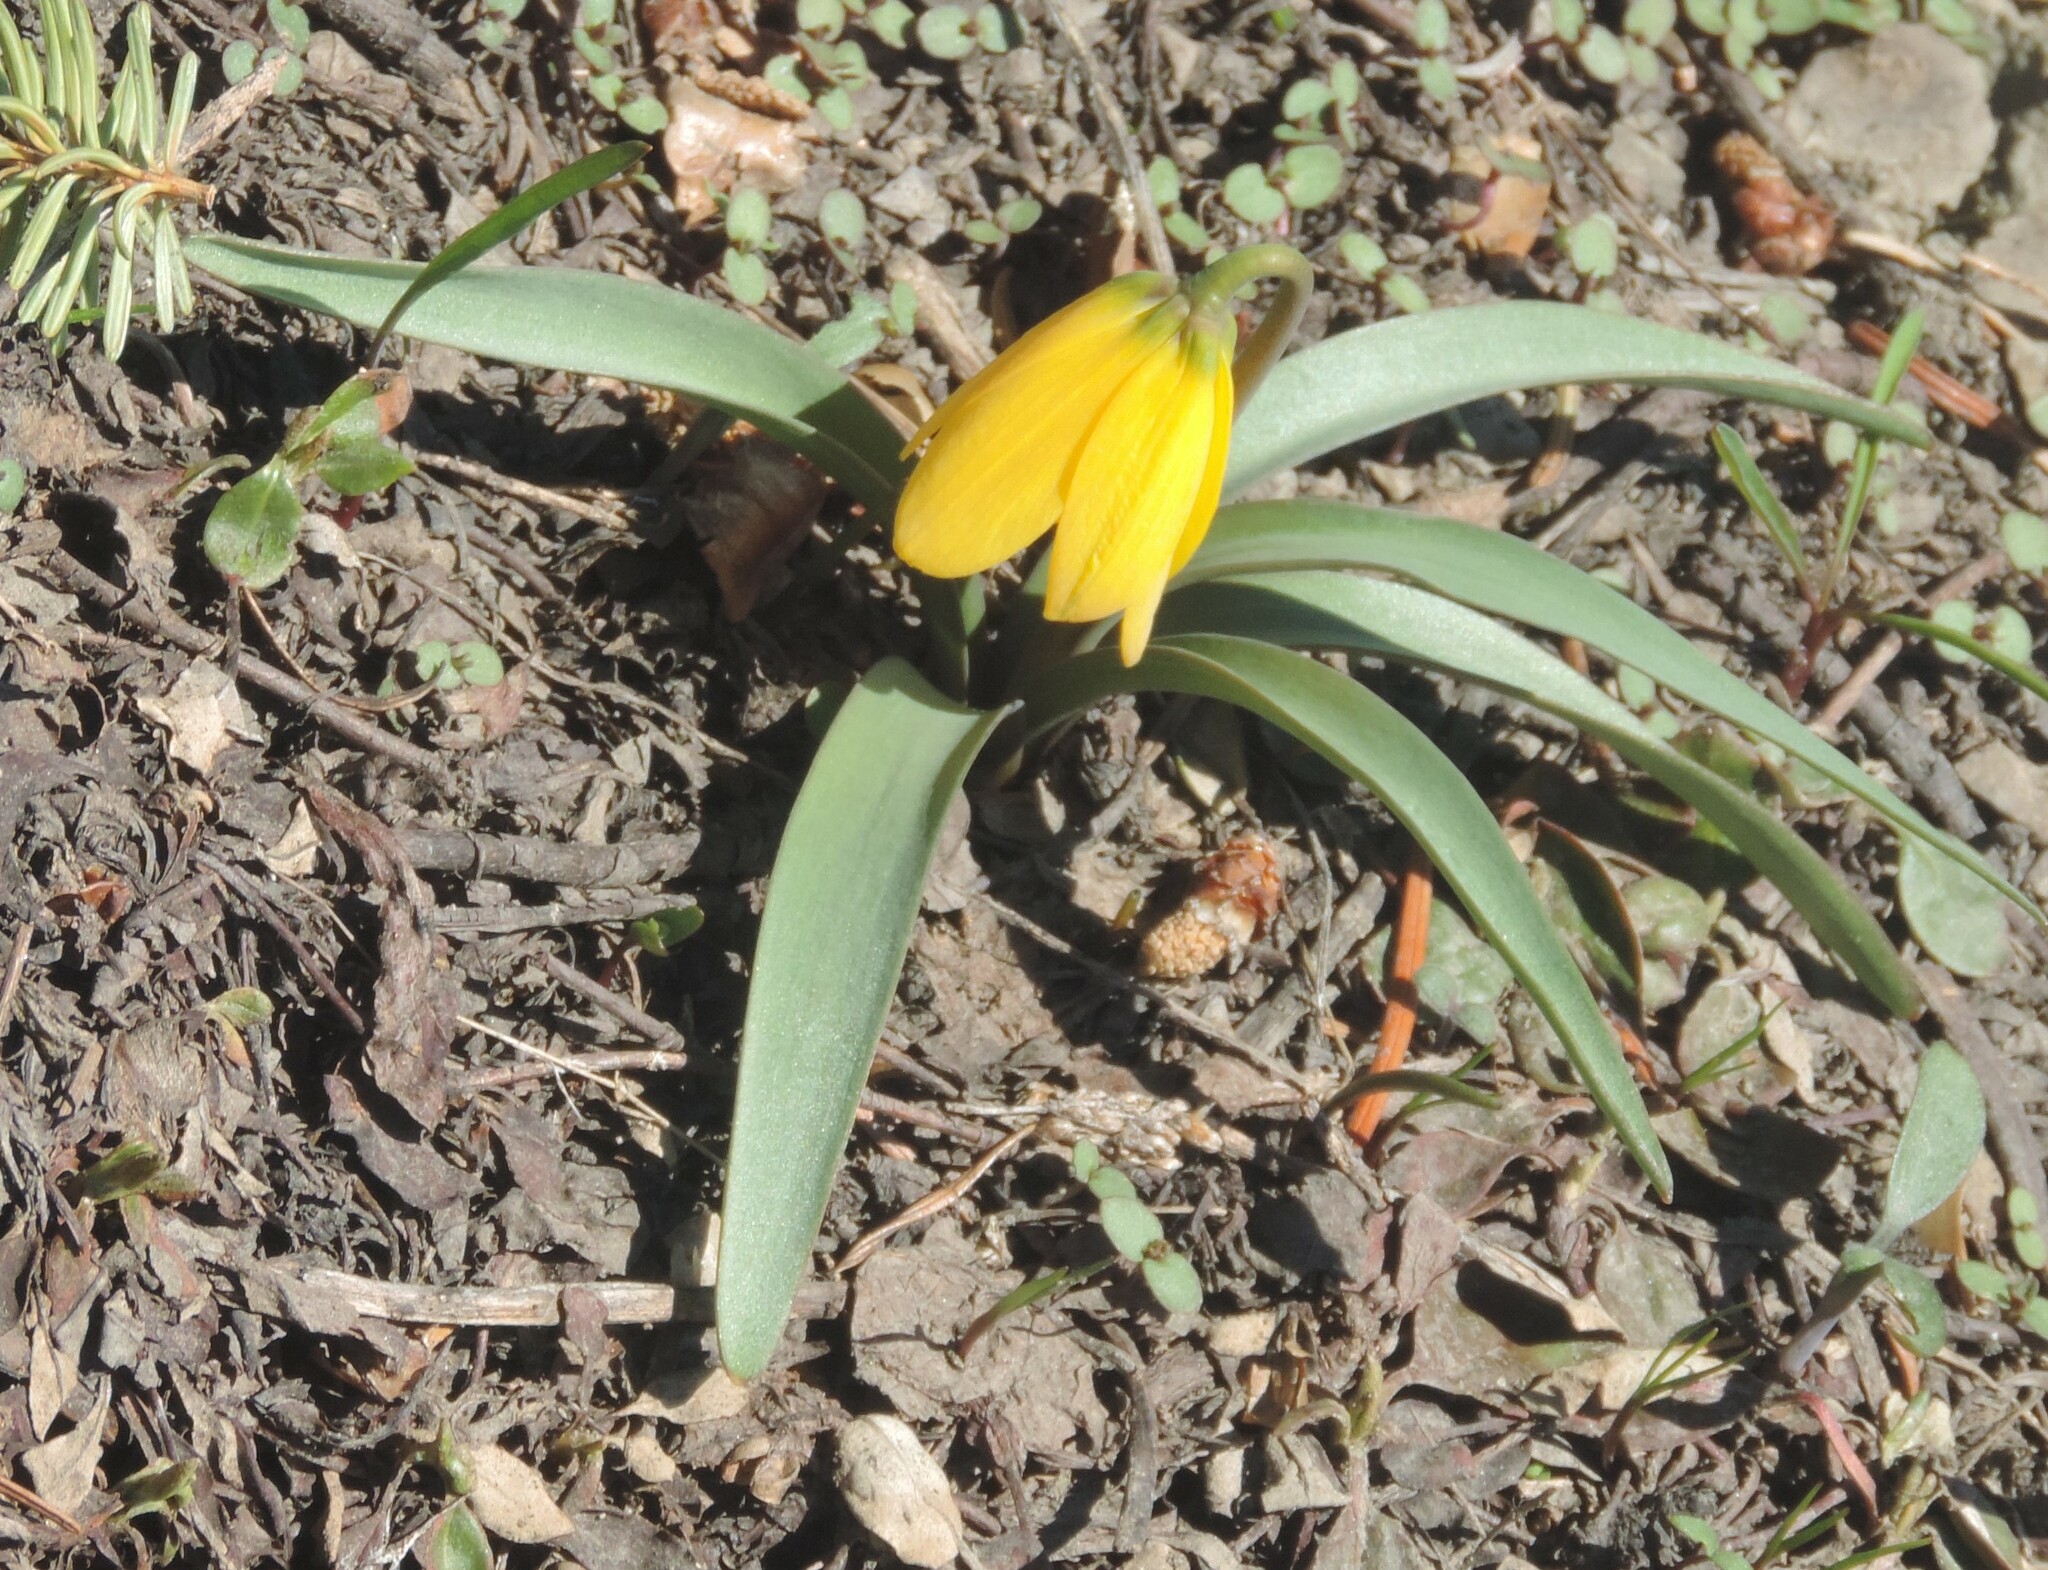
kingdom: Plantae
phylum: Tracheophyta
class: Liliopsida
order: Liliales
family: Liliaceae
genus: Fritillaria
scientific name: Fritillaria pudica
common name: Yellow fritillary
